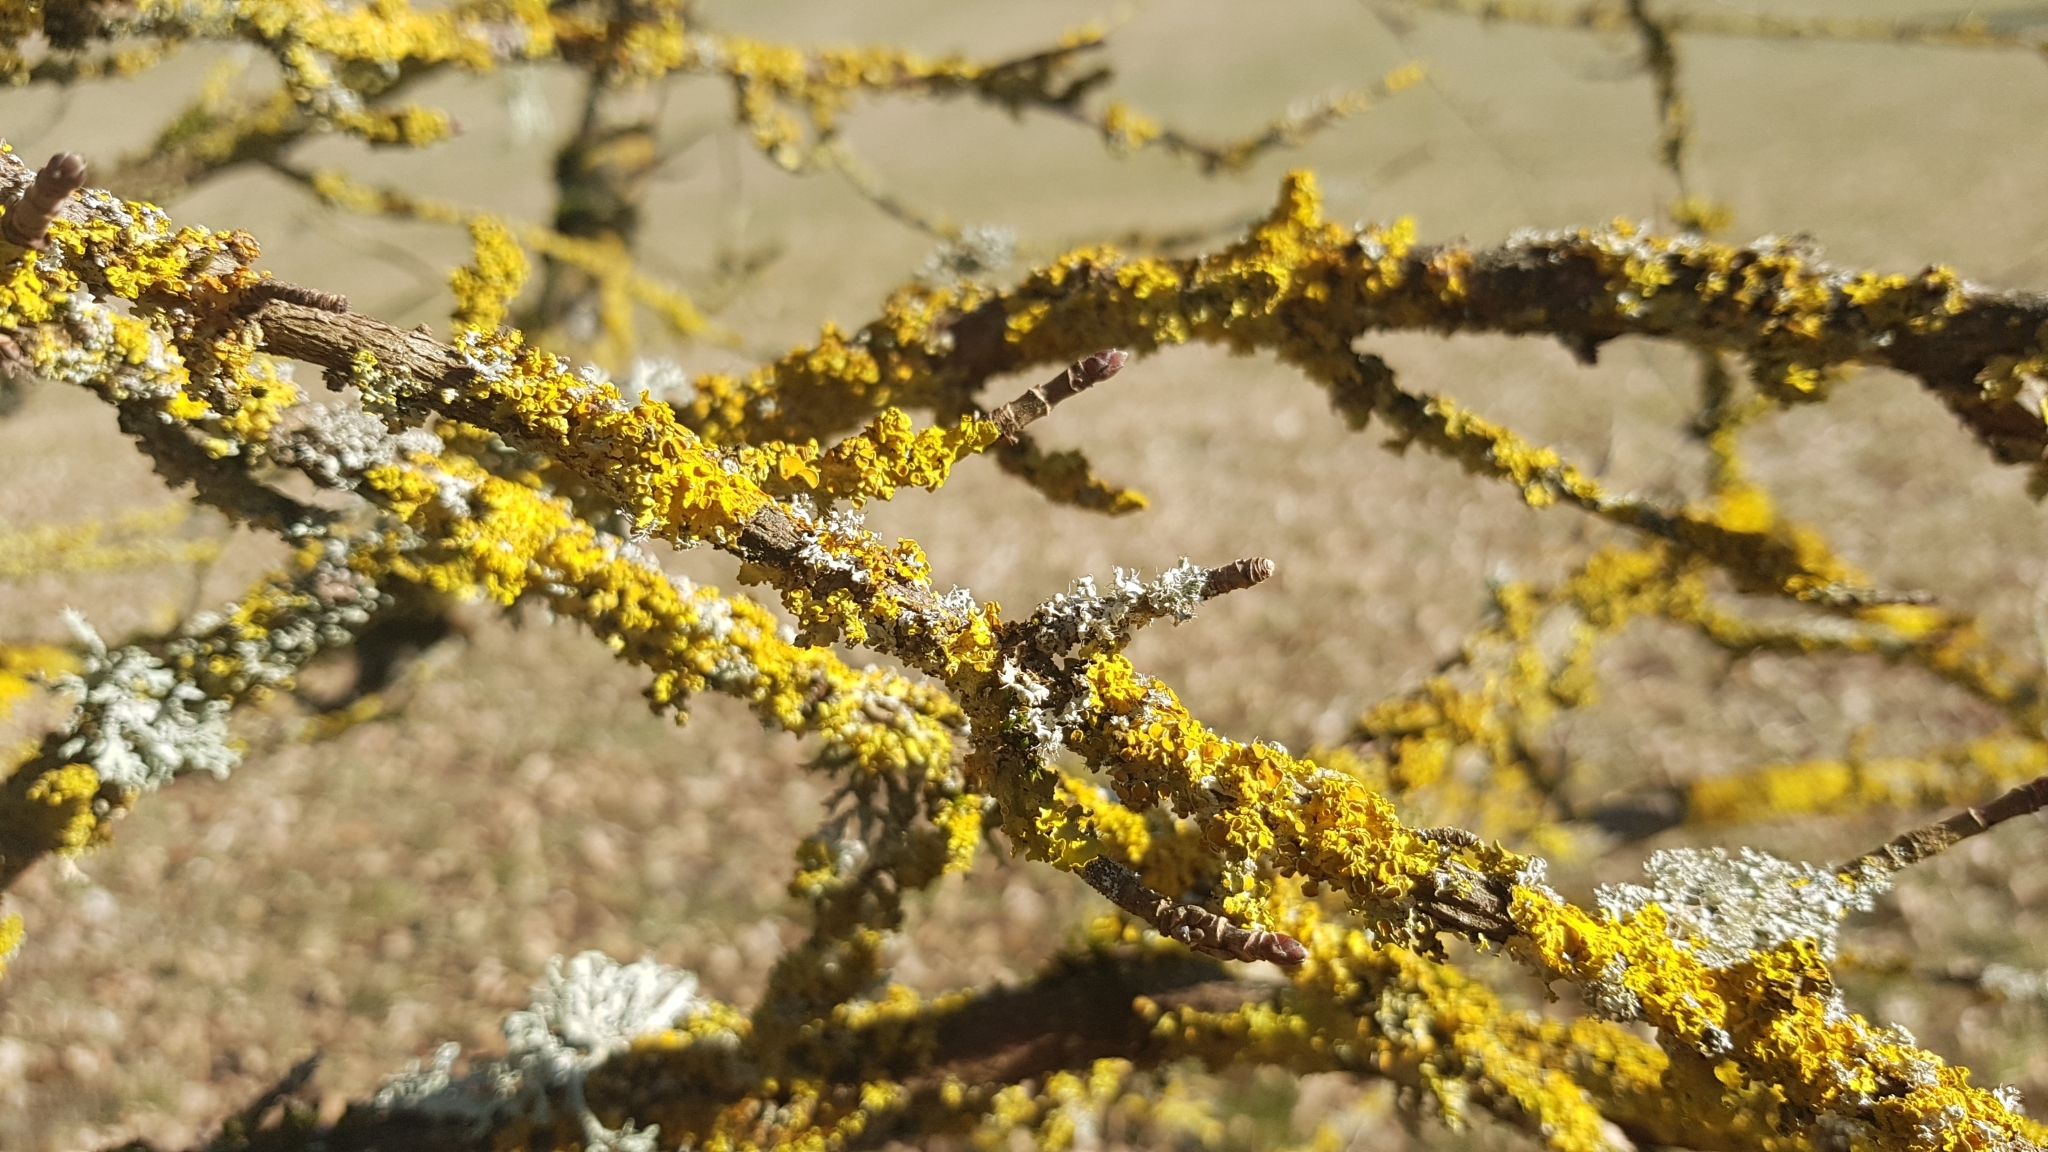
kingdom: Fungi
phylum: Ascomycota
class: Lecanoromycetes
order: Teloschistales
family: Teloschistaceae
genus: Xanthoria
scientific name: Xanthoria parietina
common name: Common orange lichen
